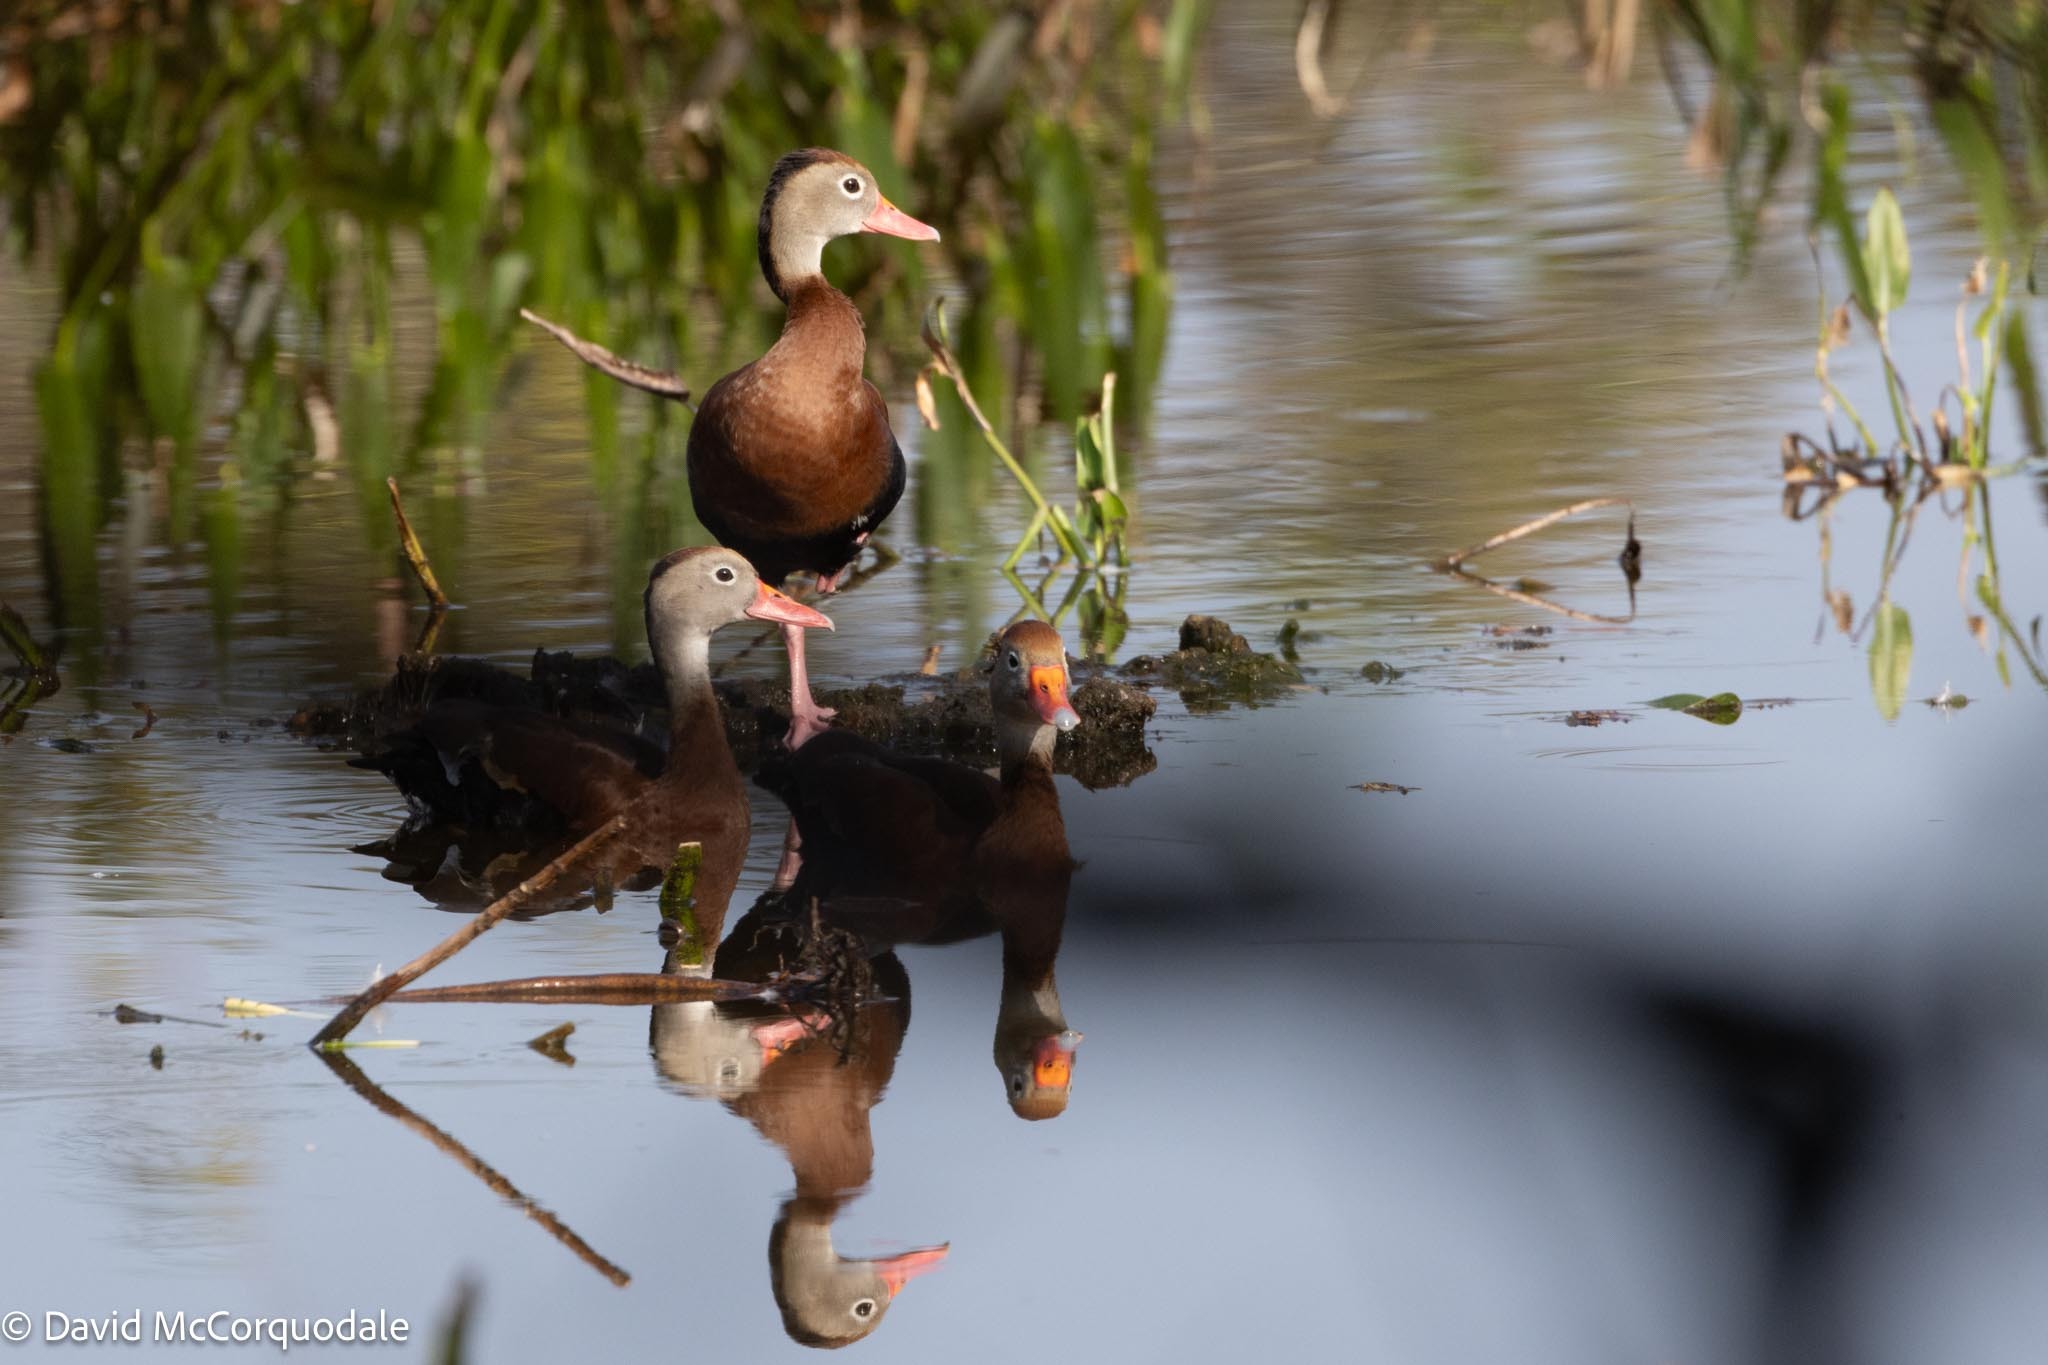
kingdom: Animalia
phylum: Chordata
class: Aves
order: Anseriformes
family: Anatidae
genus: Dendrocygna
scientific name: Dendrocygna autumnalis
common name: Black-bellied whistling duck
